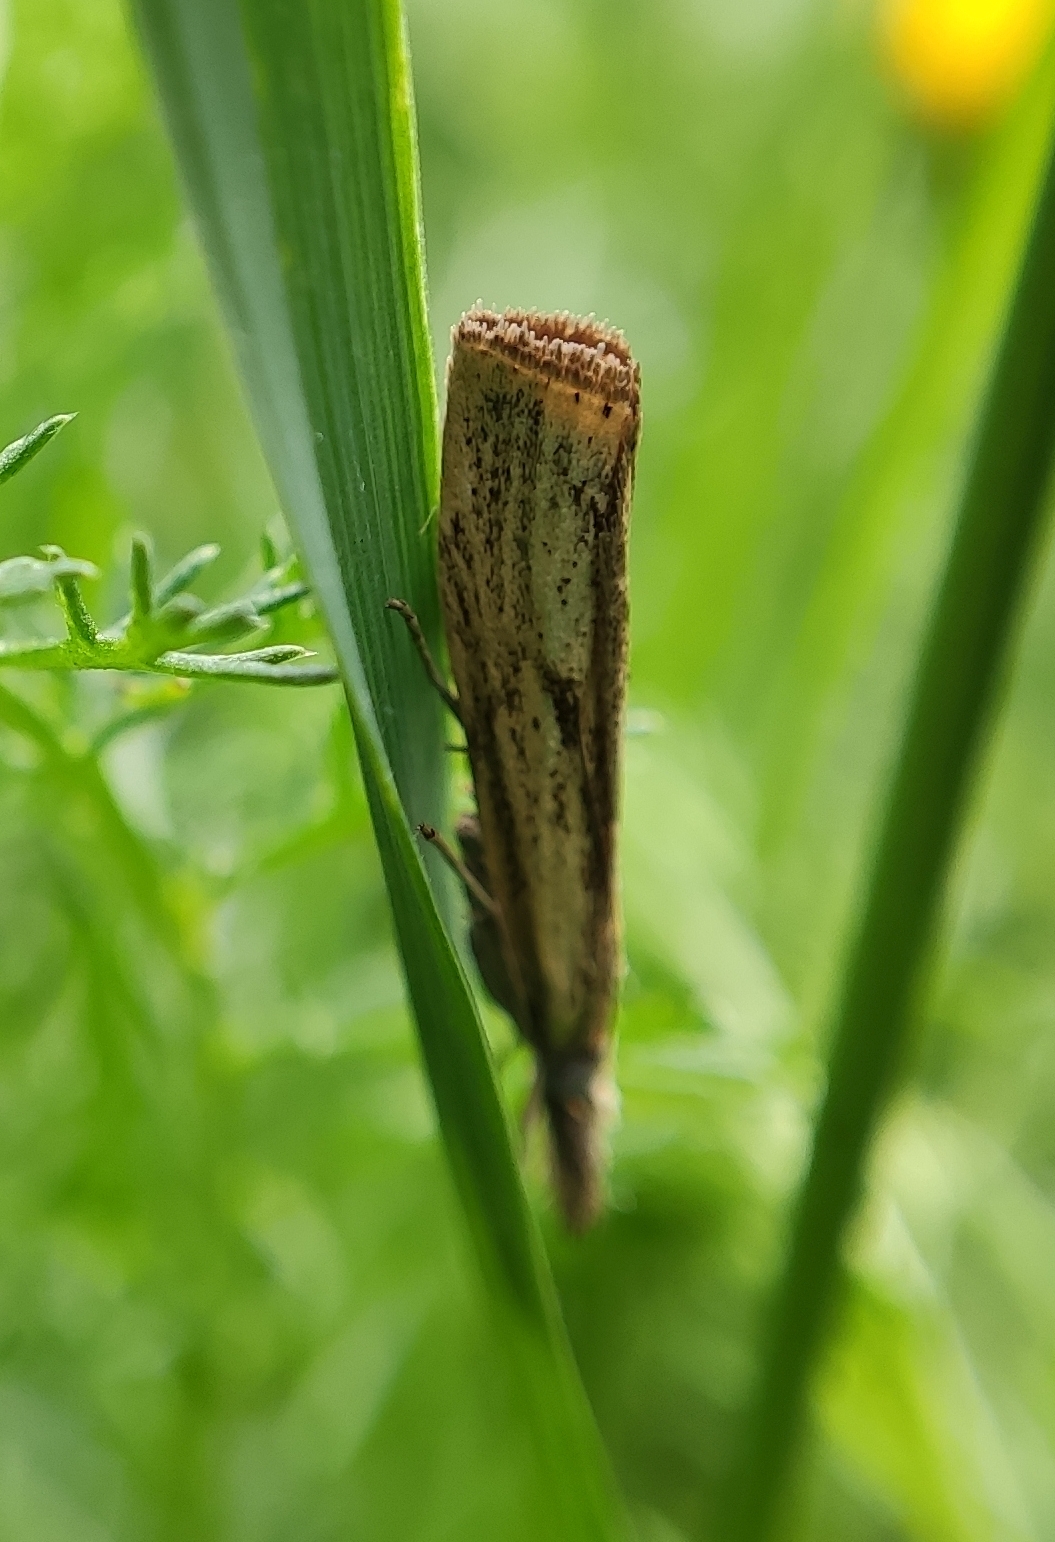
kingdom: Animalia
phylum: Arthropoda
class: Insecta
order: Lepidoptera
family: Crambidae
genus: Agriphila
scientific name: Agriphila inquinatella
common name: Barred grass-veneer
